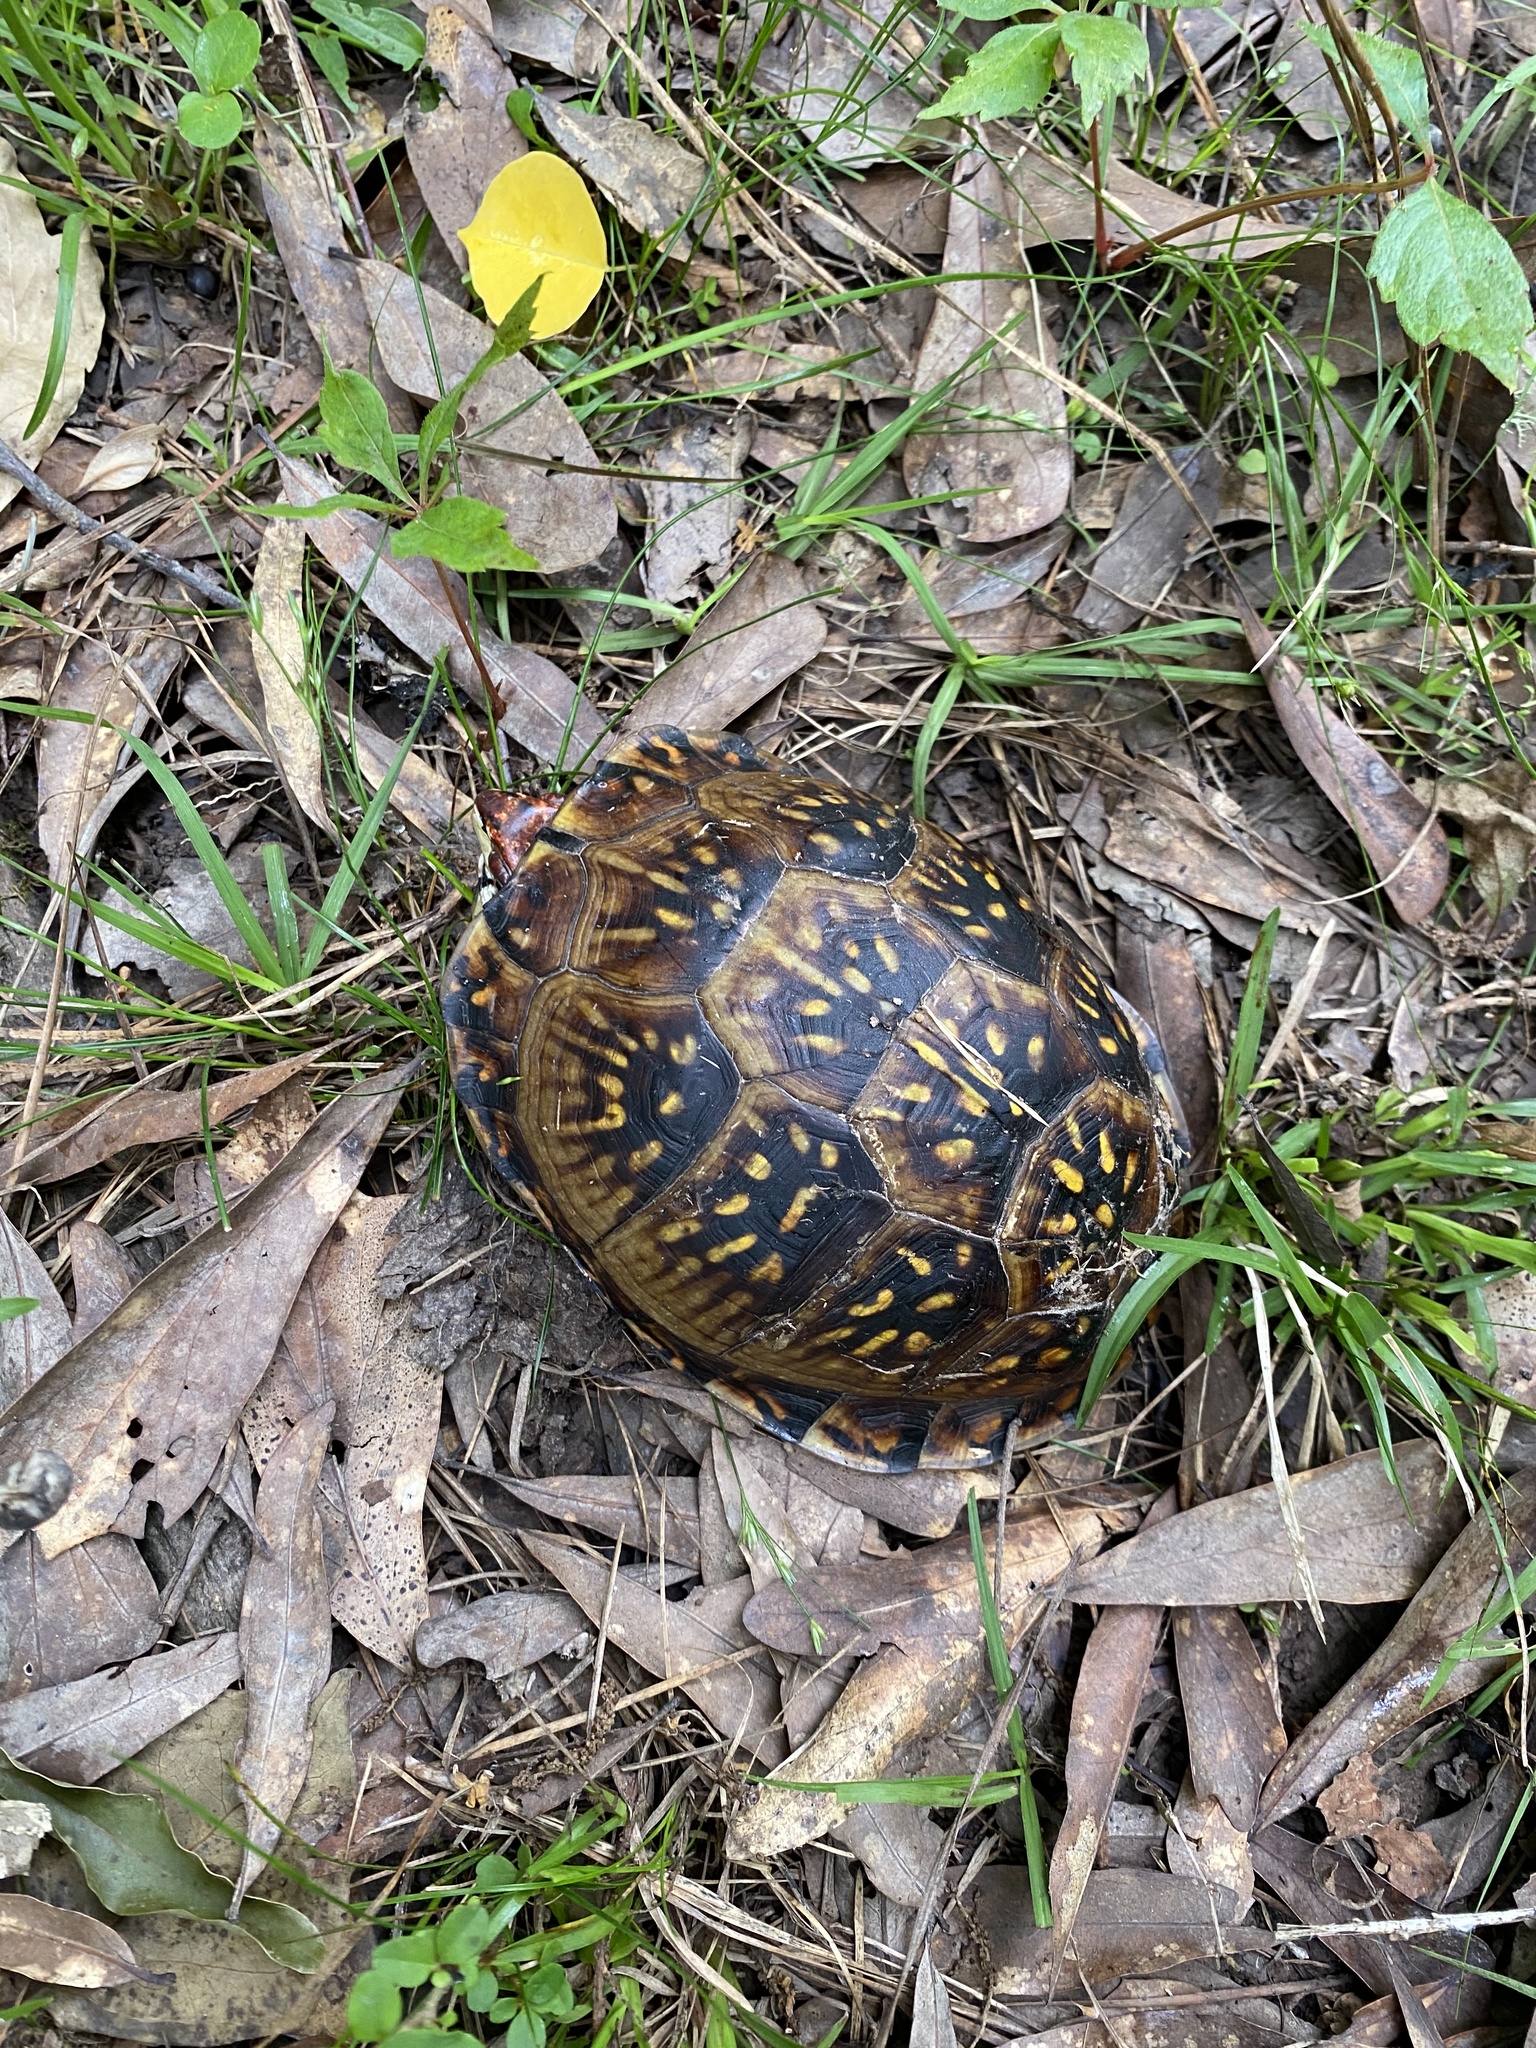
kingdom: Animalia
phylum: Chordata
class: Testudines
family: Emydidae
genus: Terrapene
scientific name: Terrapene carolina
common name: Common box turtle
